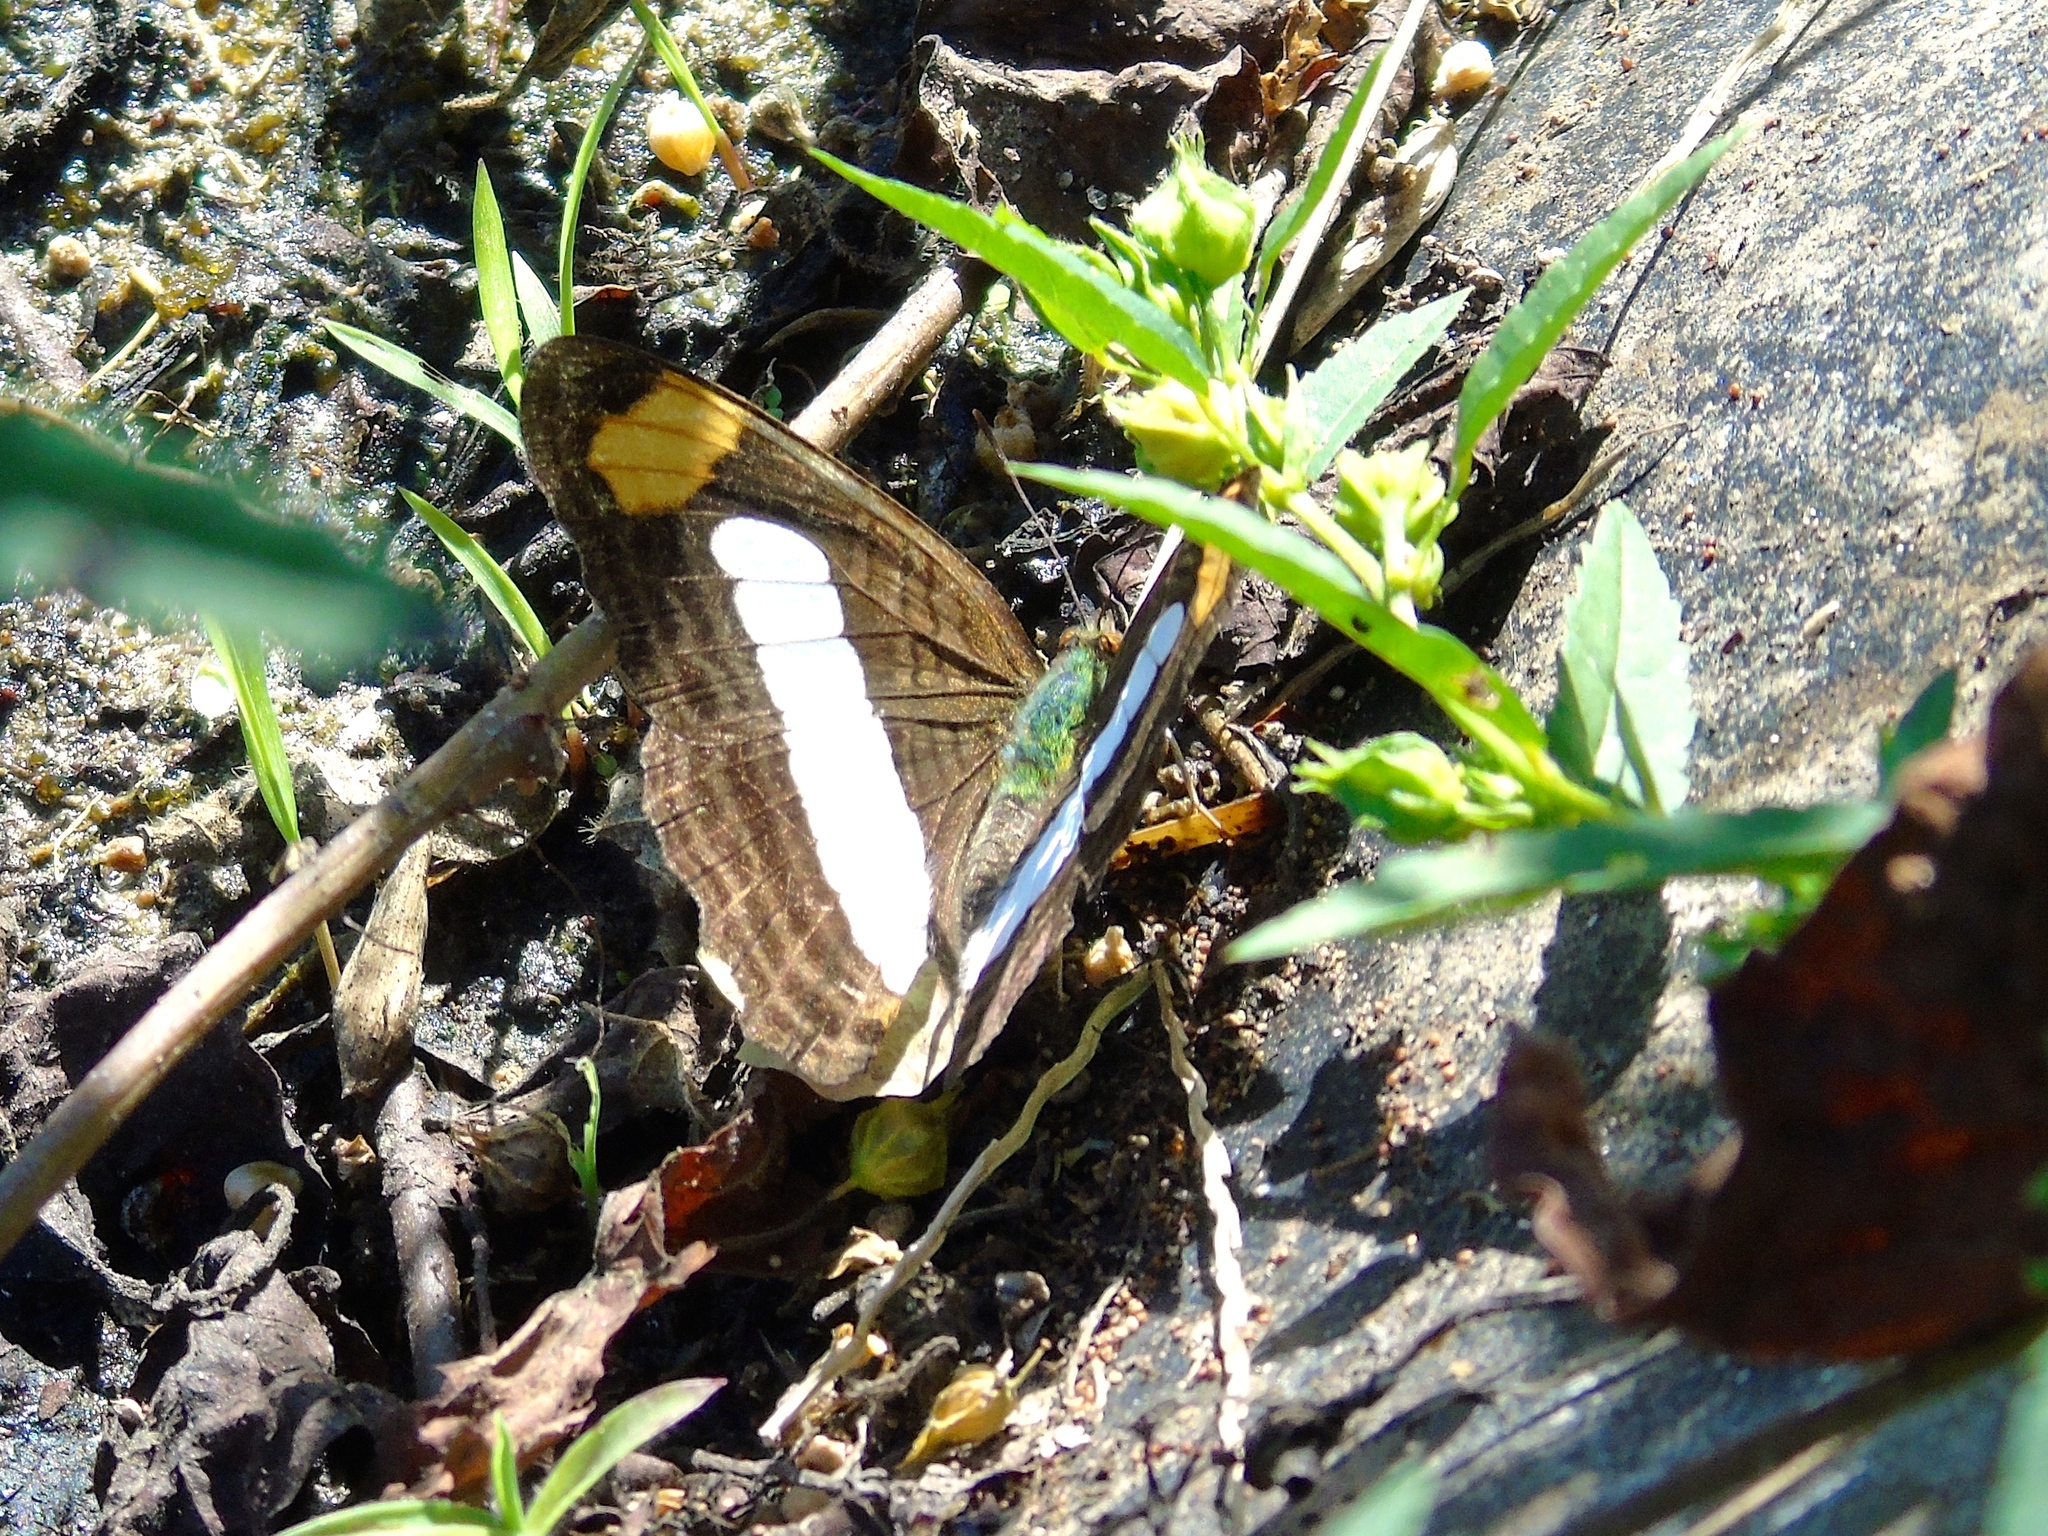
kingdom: Animalia
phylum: Arthropoda
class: Insecta
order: Lepidoptera
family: Nymphalidae
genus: Limenitis
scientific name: Limenitis iphiclus
